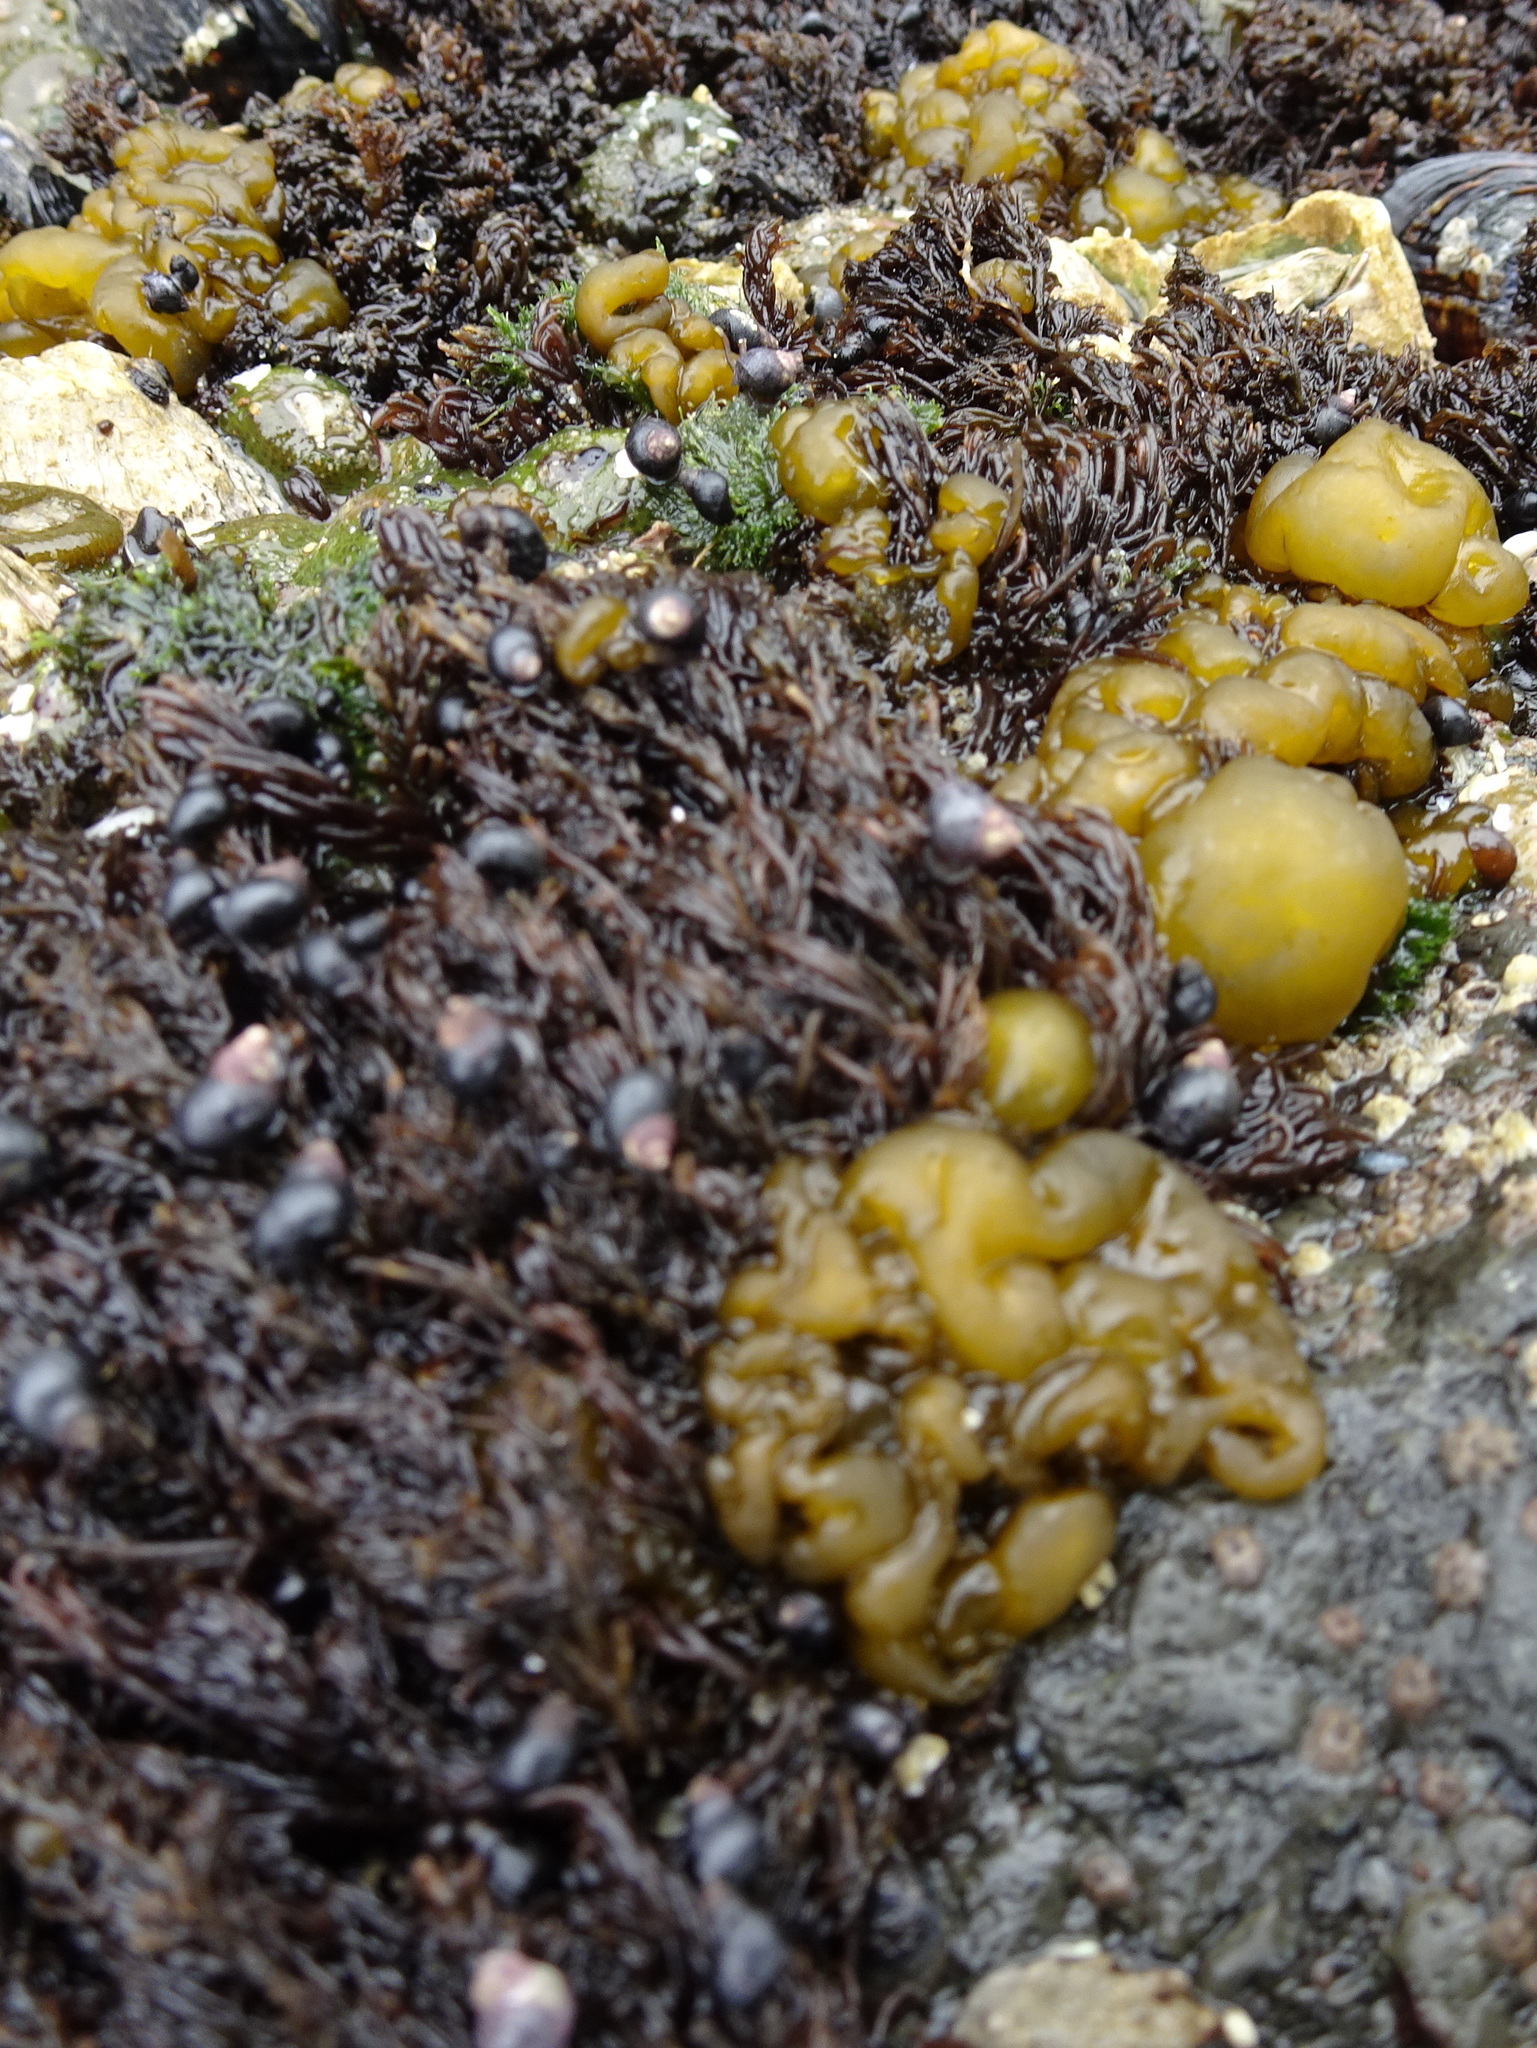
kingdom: Chromista
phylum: Ochrophyta
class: Phaeophyceae
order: Ectocarpales
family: Chordariaceae
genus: Leathesia
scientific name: Leathesia marina
